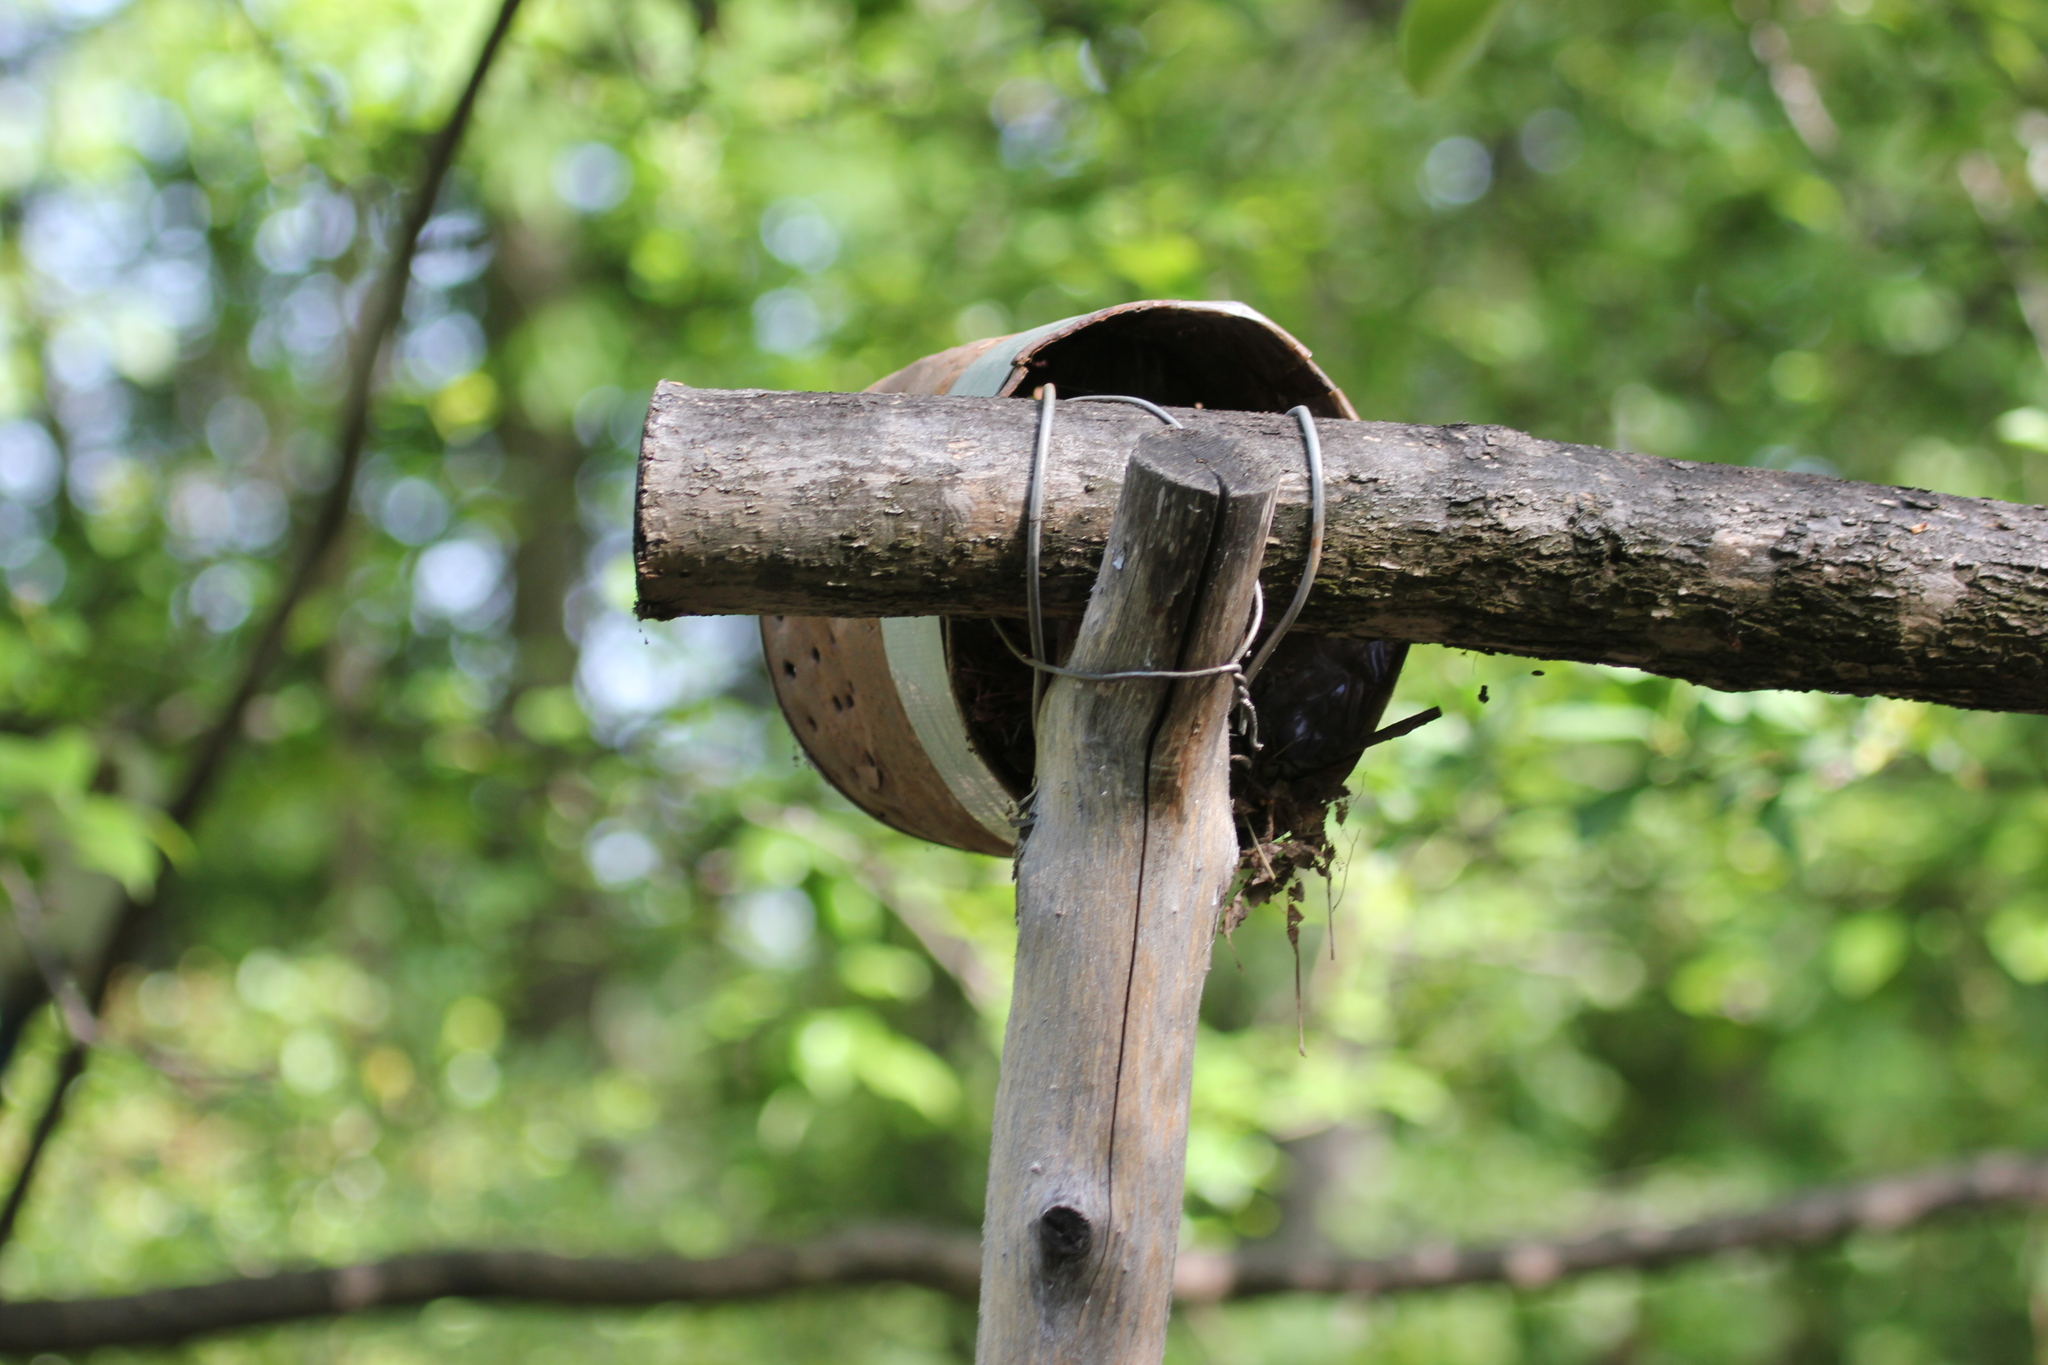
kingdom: Animalia
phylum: Chordata
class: Aves
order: Passeriformes
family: Motacillidae
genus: Motacilla
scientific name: Motacilla alba
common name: White wagtail
